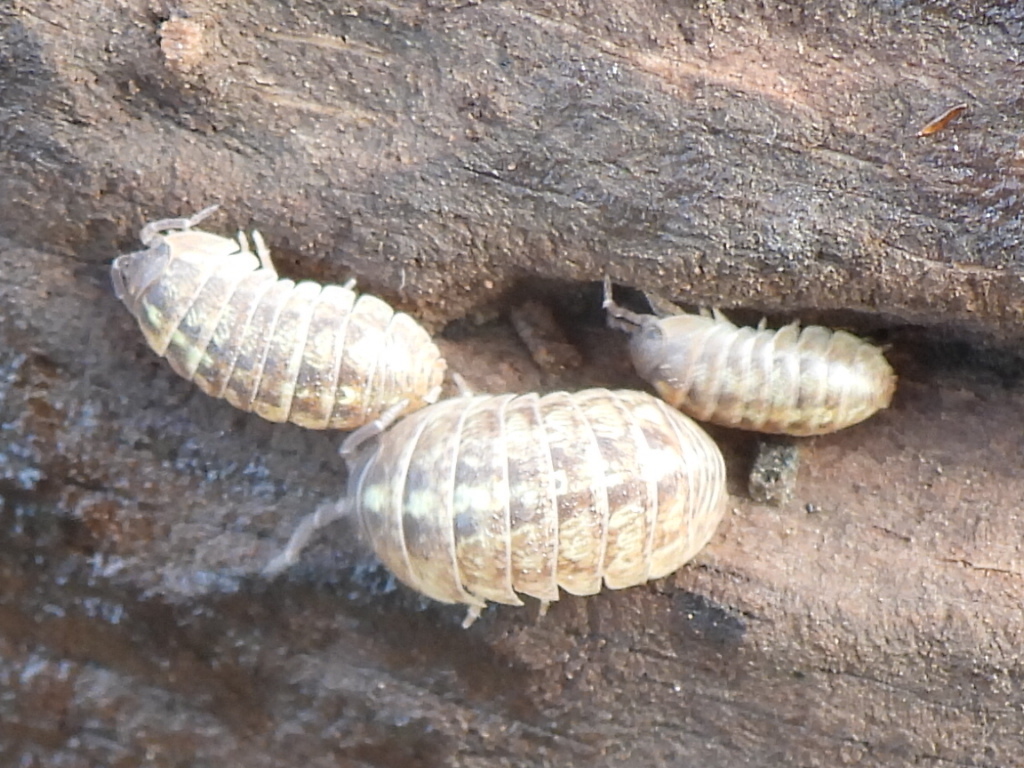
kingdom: Animalia
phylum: Arthropoda
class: Malacostraca
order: Isopoda
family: Armadillidiidae
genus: Armadillidium
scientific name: Armadillidium vulgare
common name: Common pill woodlouse
